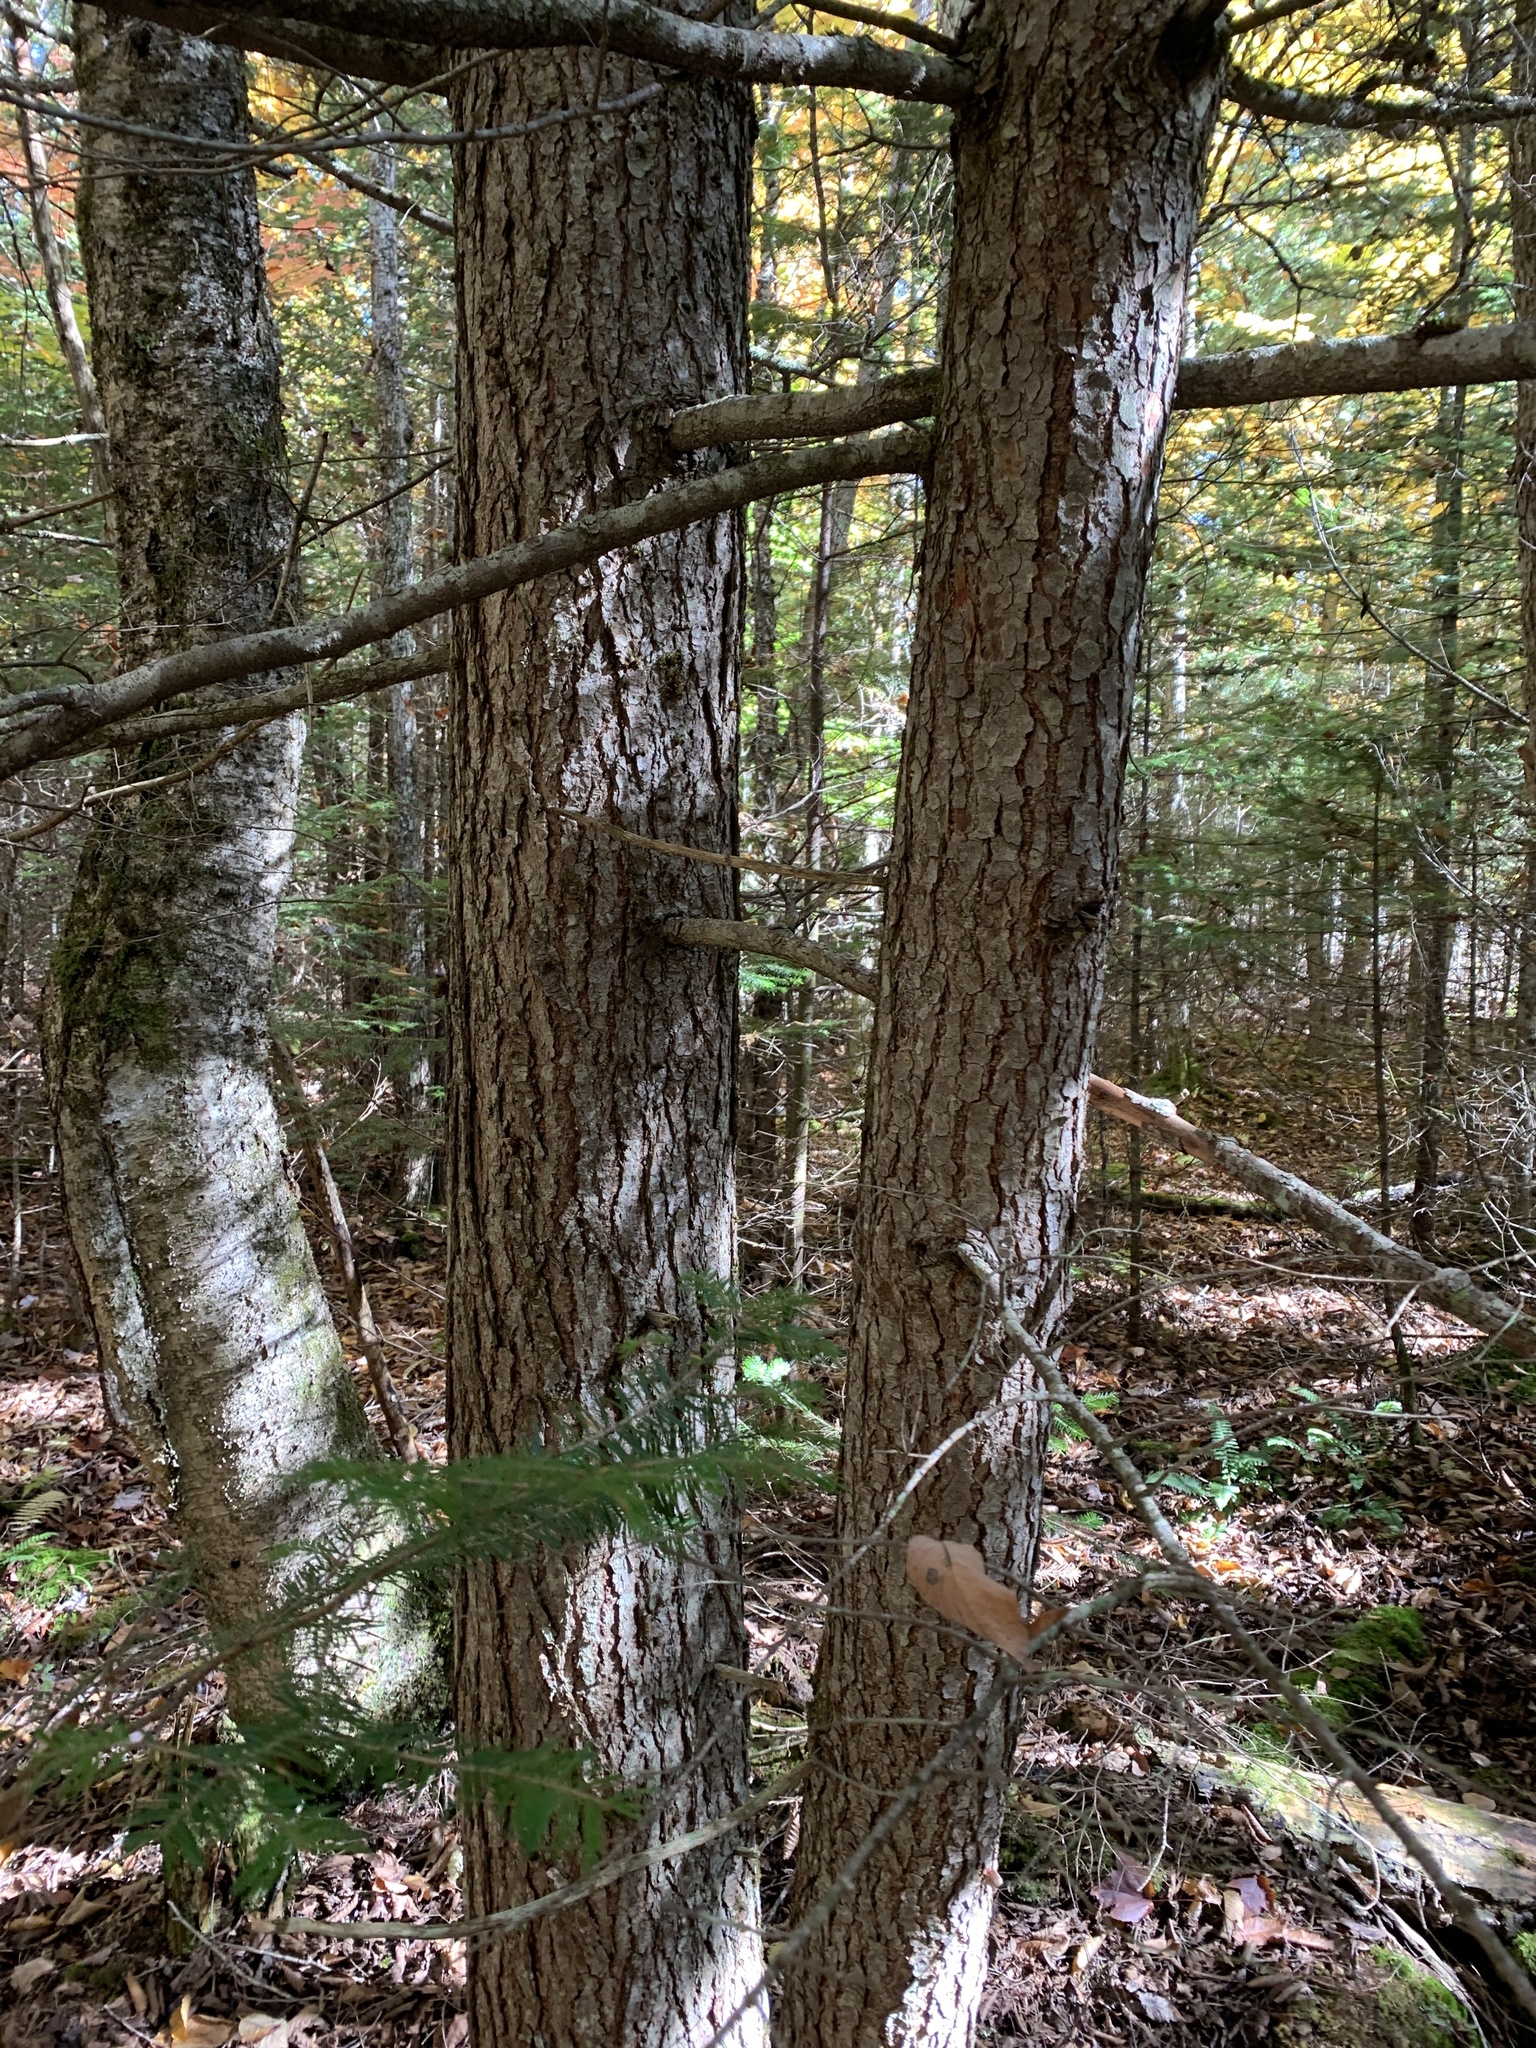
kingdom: Plantae
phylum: Tracheophyta
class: Pinopsida
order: Pinales
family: Pinaceae
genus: Tsuga
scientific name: Tsuga canadensis
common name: Eastern hemlock
